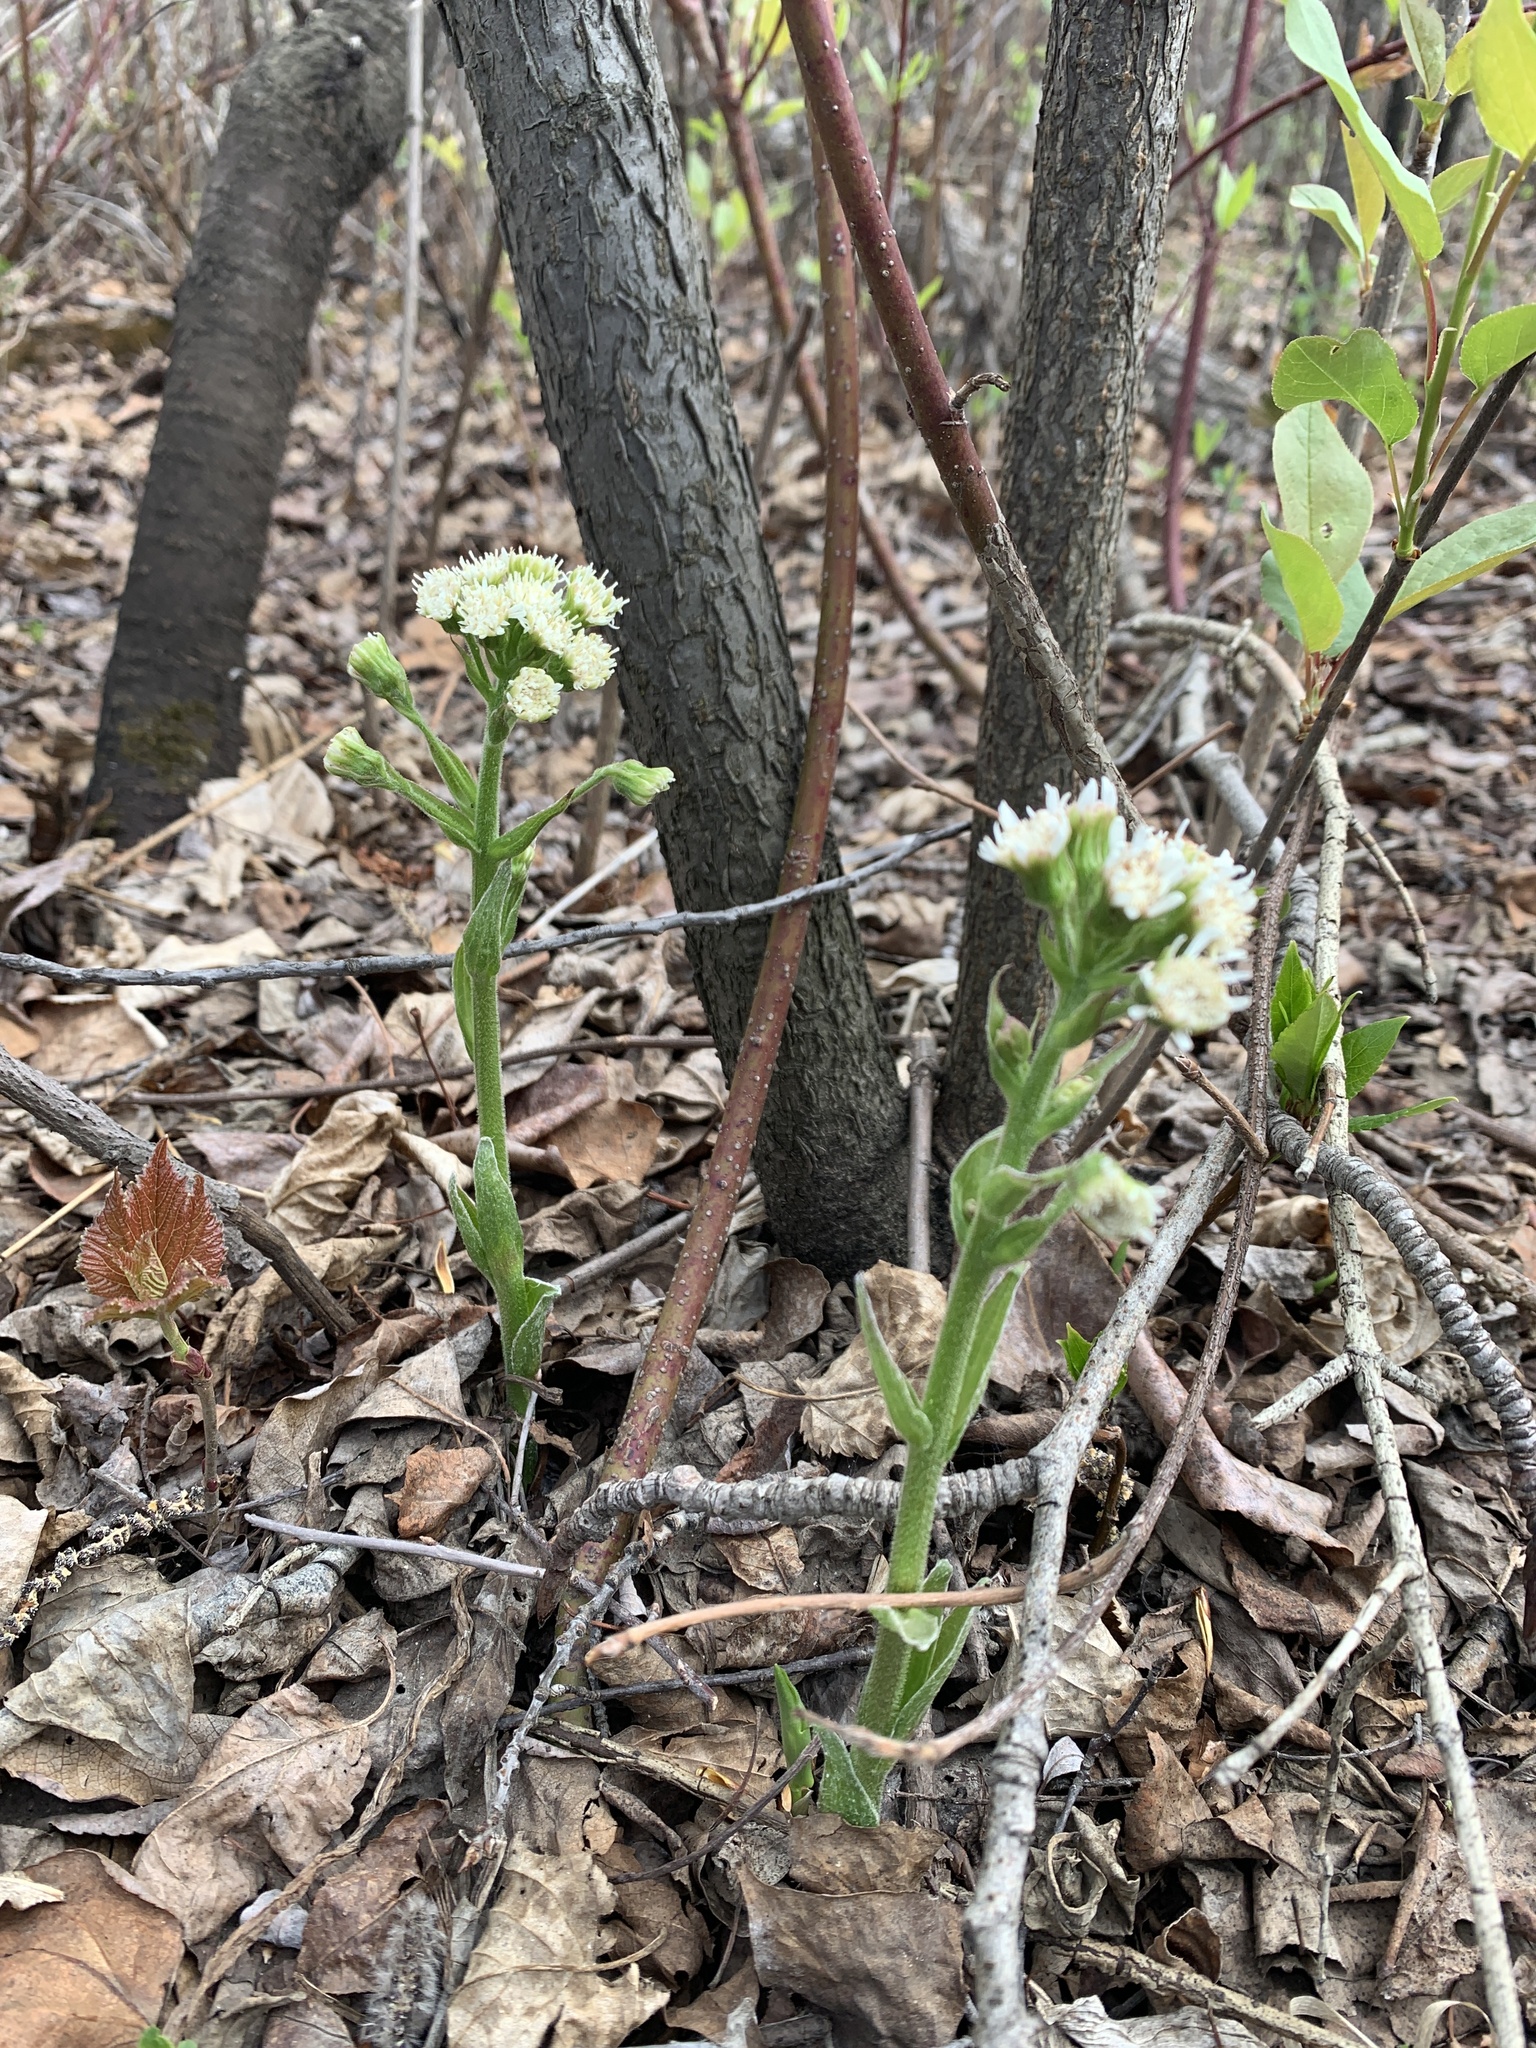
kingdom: Plantae
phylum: Tracheophyta
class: Magnoliopsida
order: Asterales
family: Asteraceae
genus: Petasites
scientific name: Petasites frigidus
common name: Arctic butterbur
